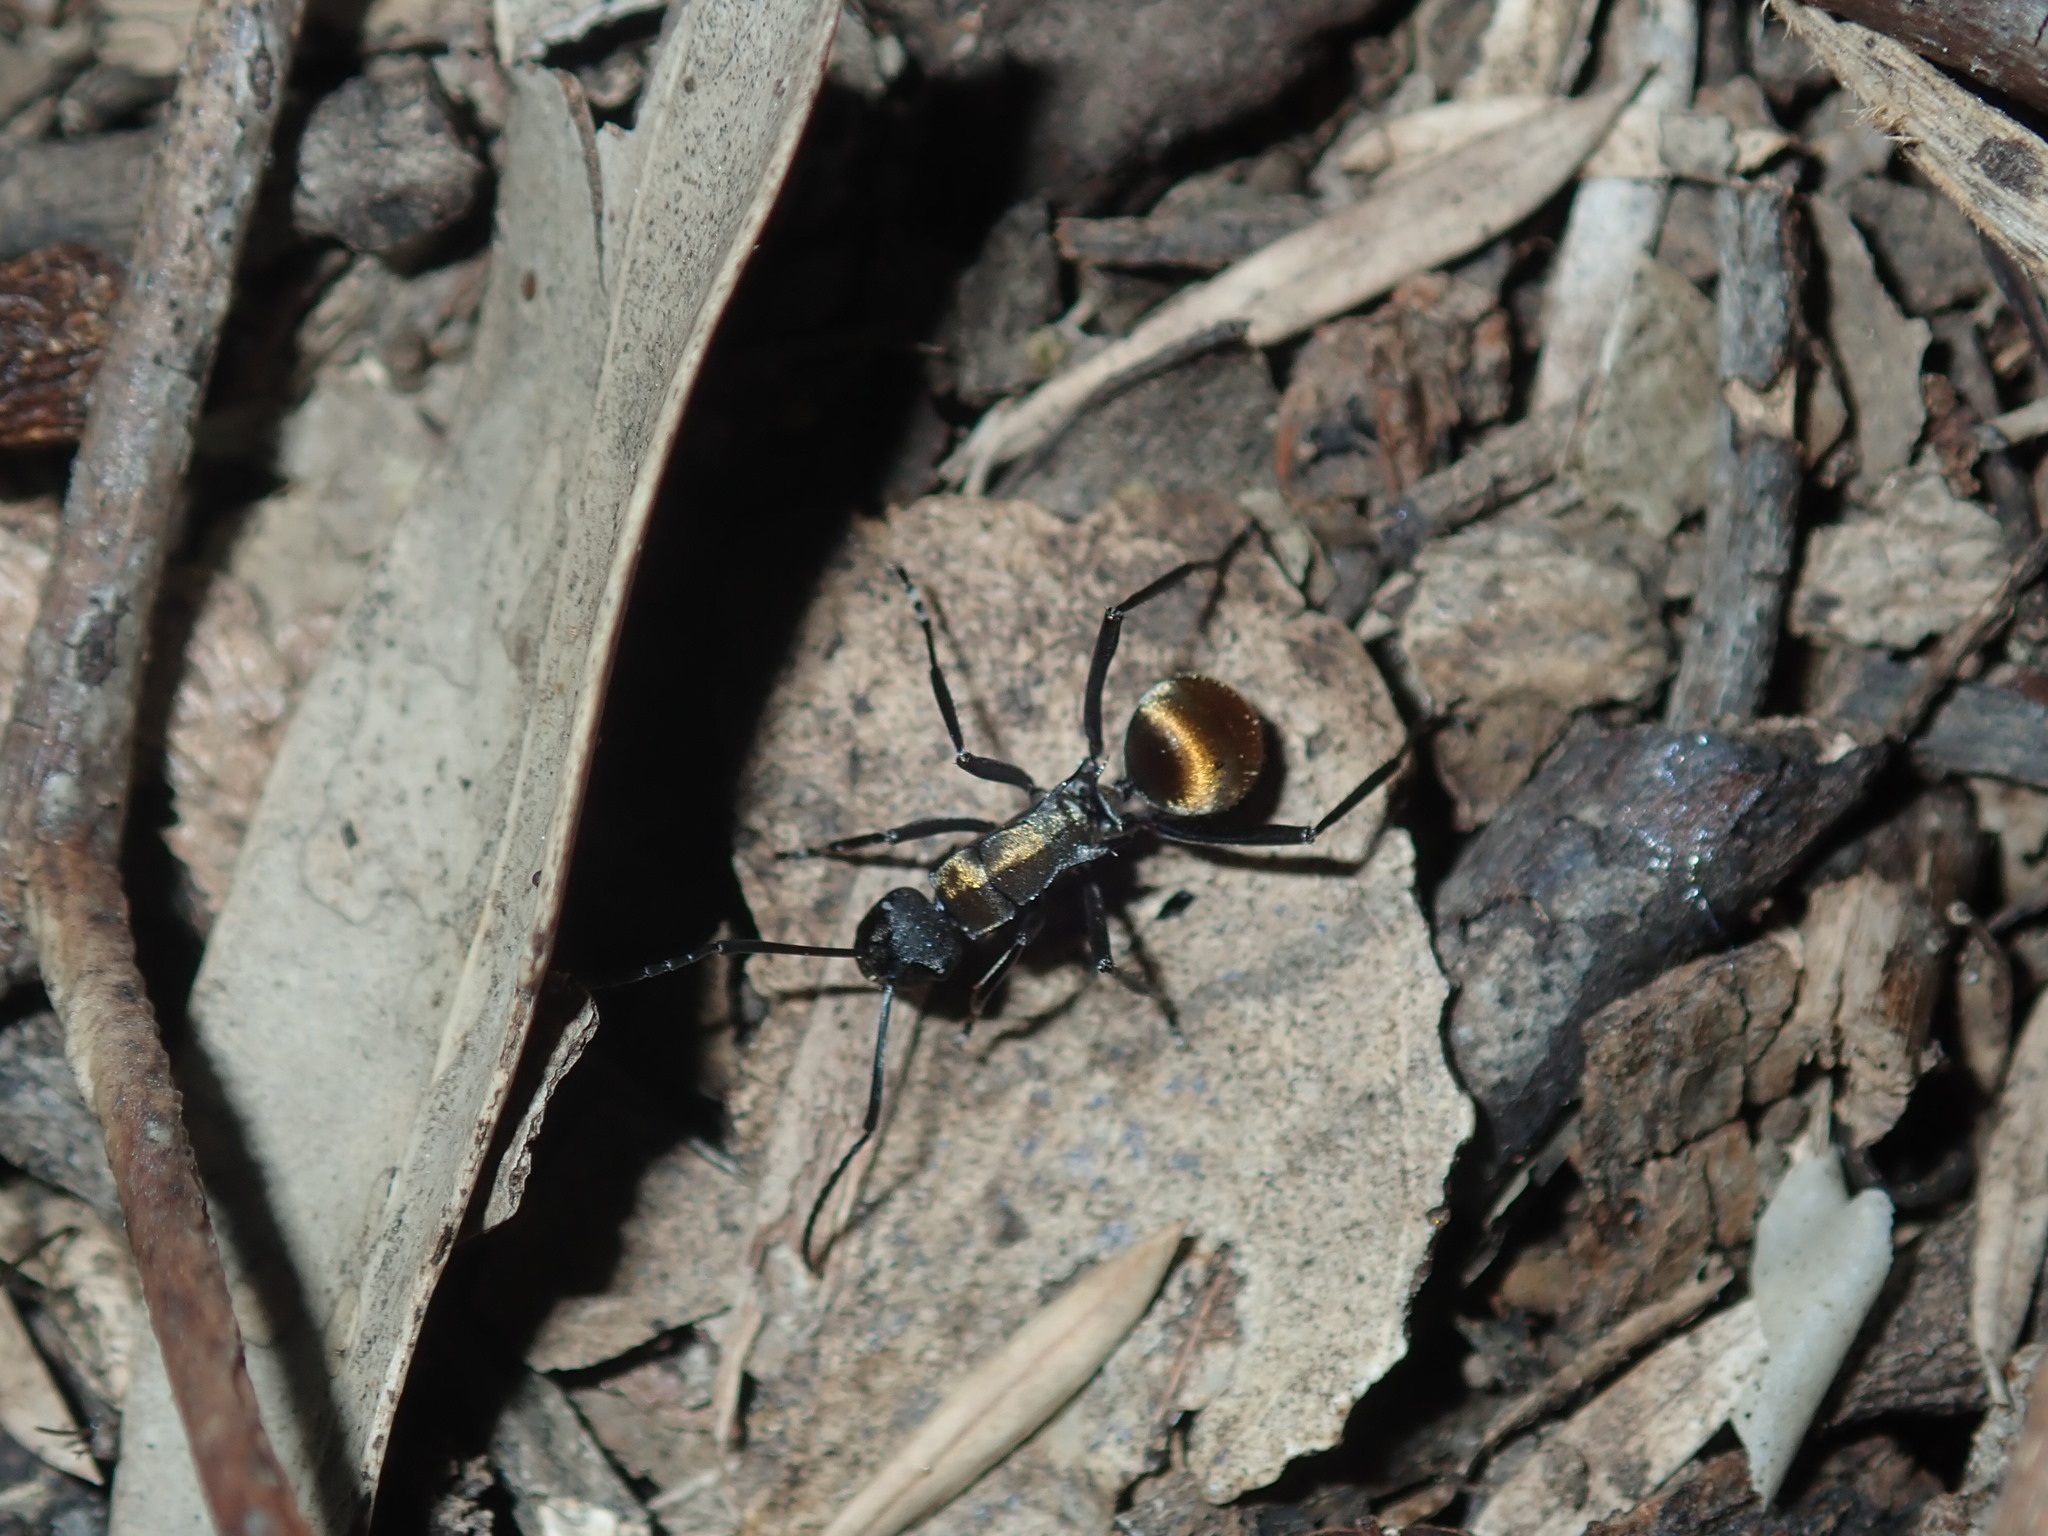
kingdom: Animalia
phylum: Arthropoda
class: Insecta
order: Hymenoptera
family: Formicidae
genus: Polyrhachis
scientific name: Polyrhachis ammon
